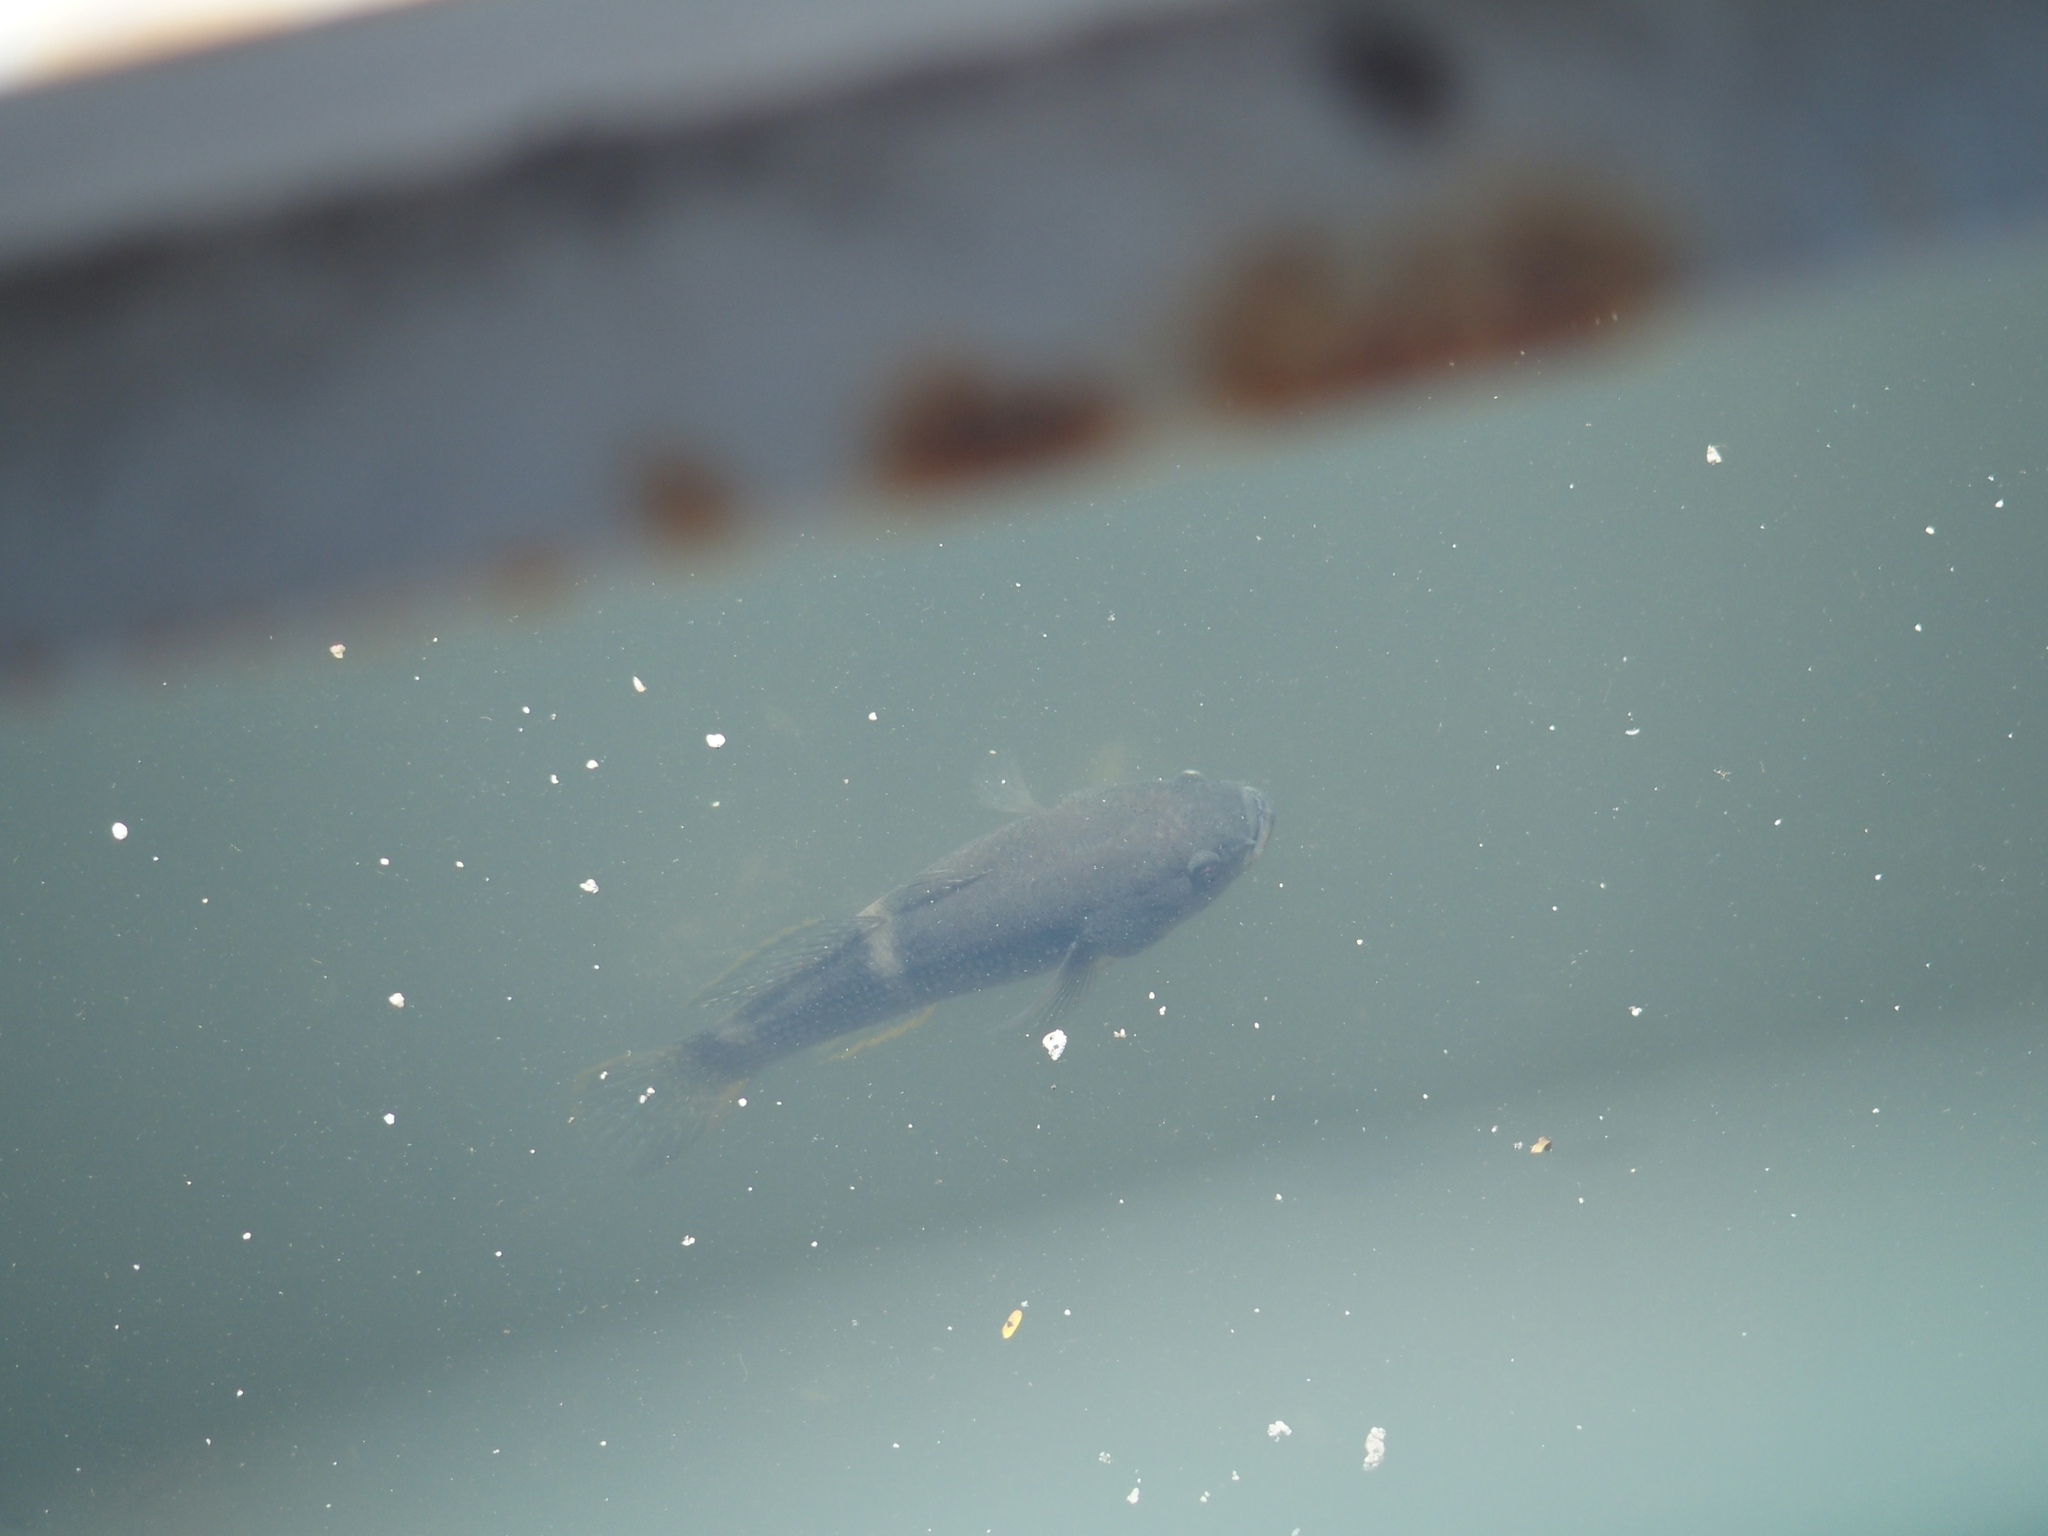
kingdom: Animalia
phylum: Chordata
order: Perciformes
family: Eleotridae
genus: Ophiocara
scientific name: Ophiocara porocephala
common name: Spangled gudgeon
